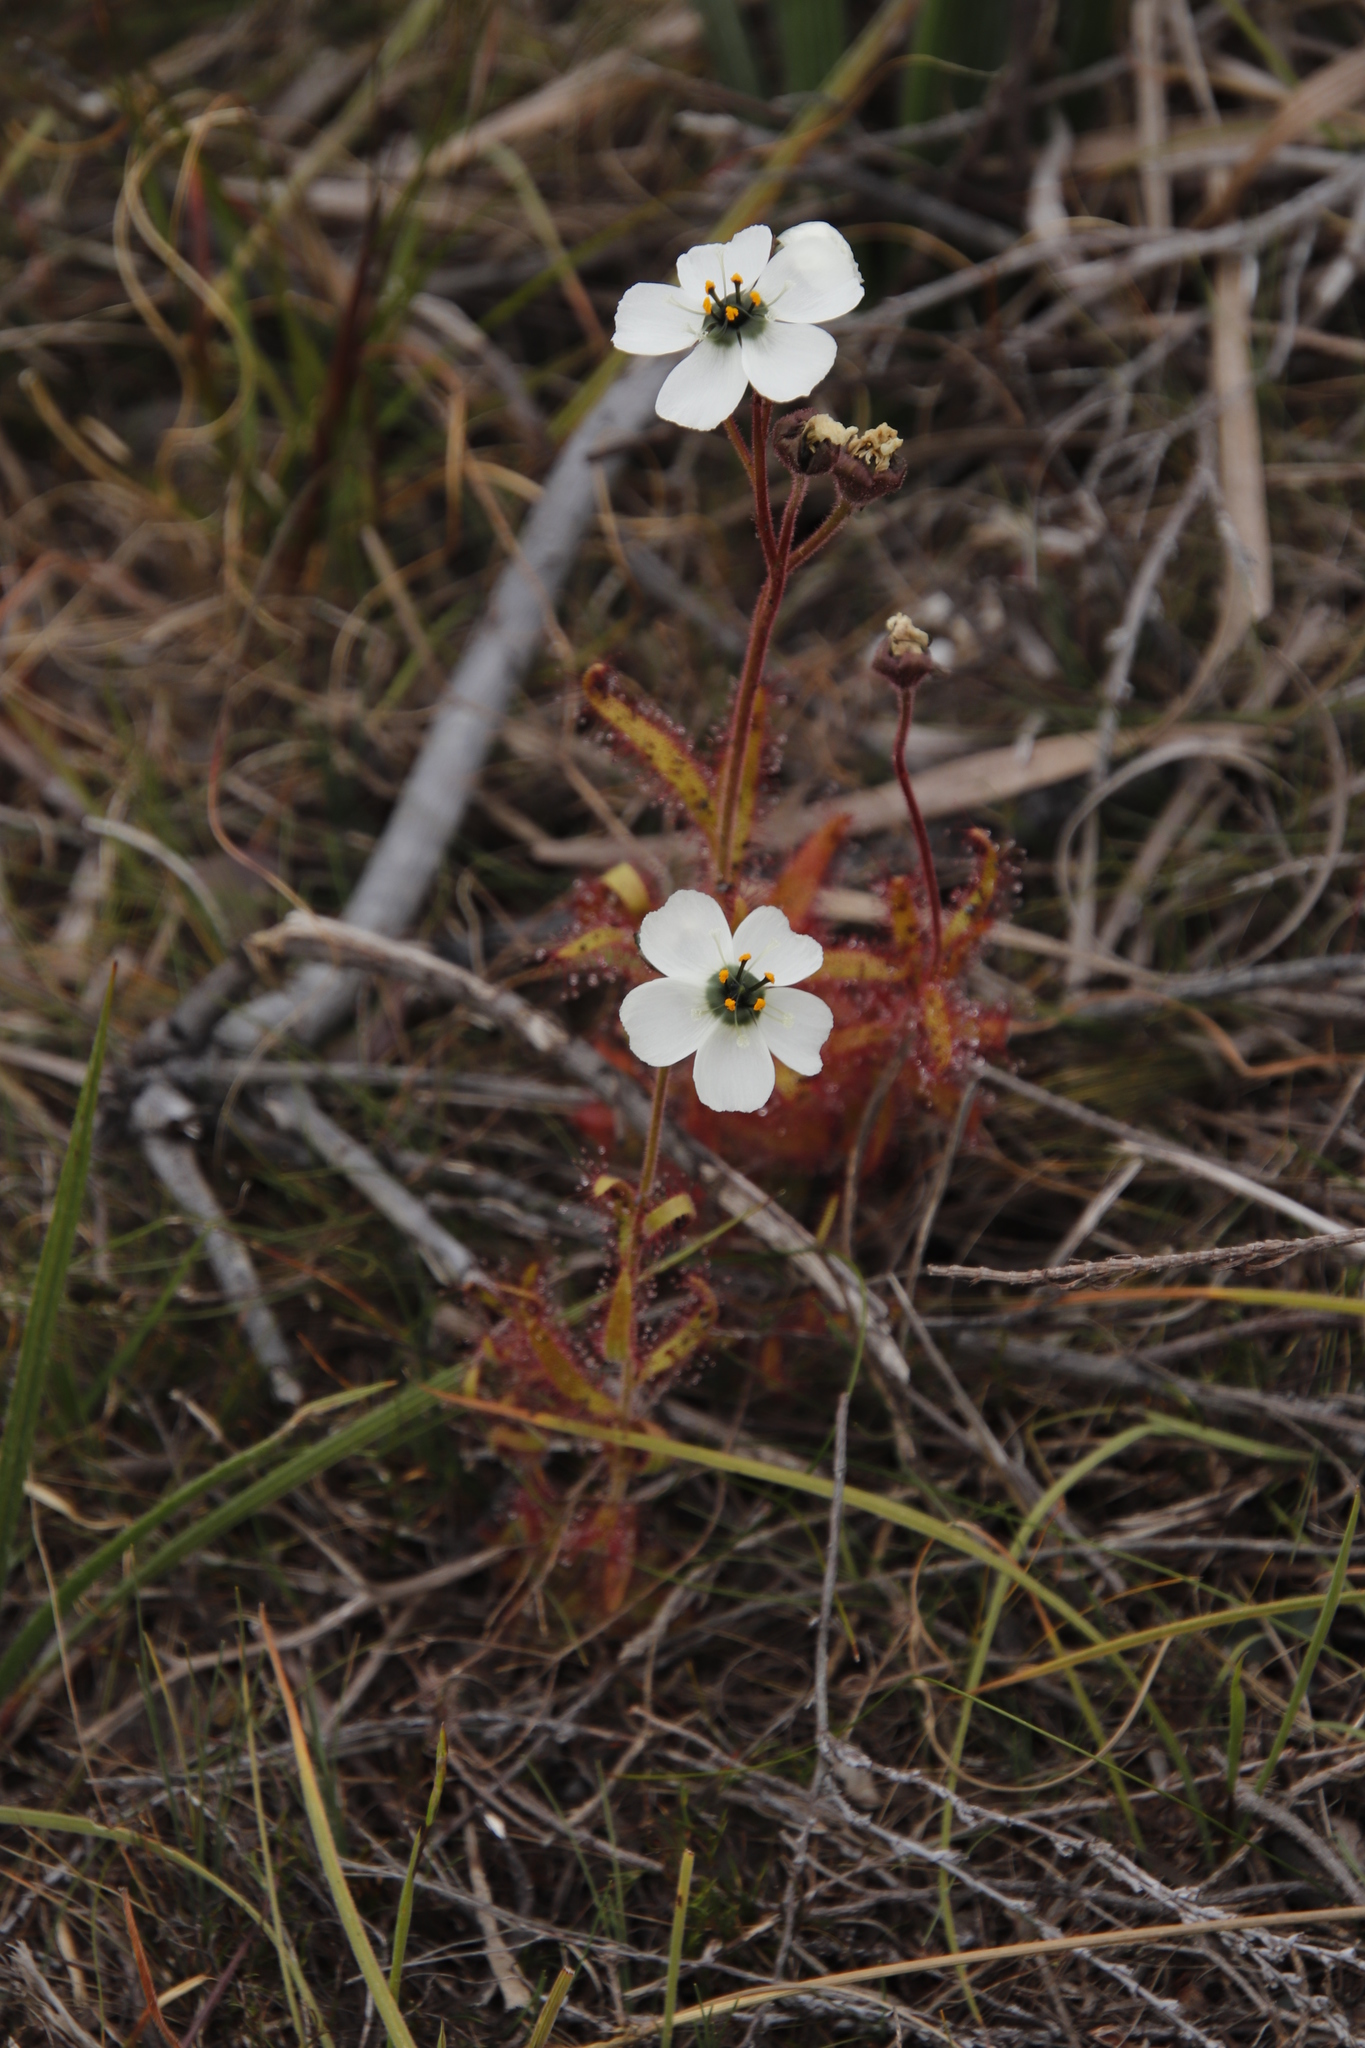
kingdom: Plantae
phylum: Tracheophyta
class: Magnoliopsida
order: Caryophyllales
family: Droseraceae
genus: Drosera
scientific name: Drosera cistiflora
